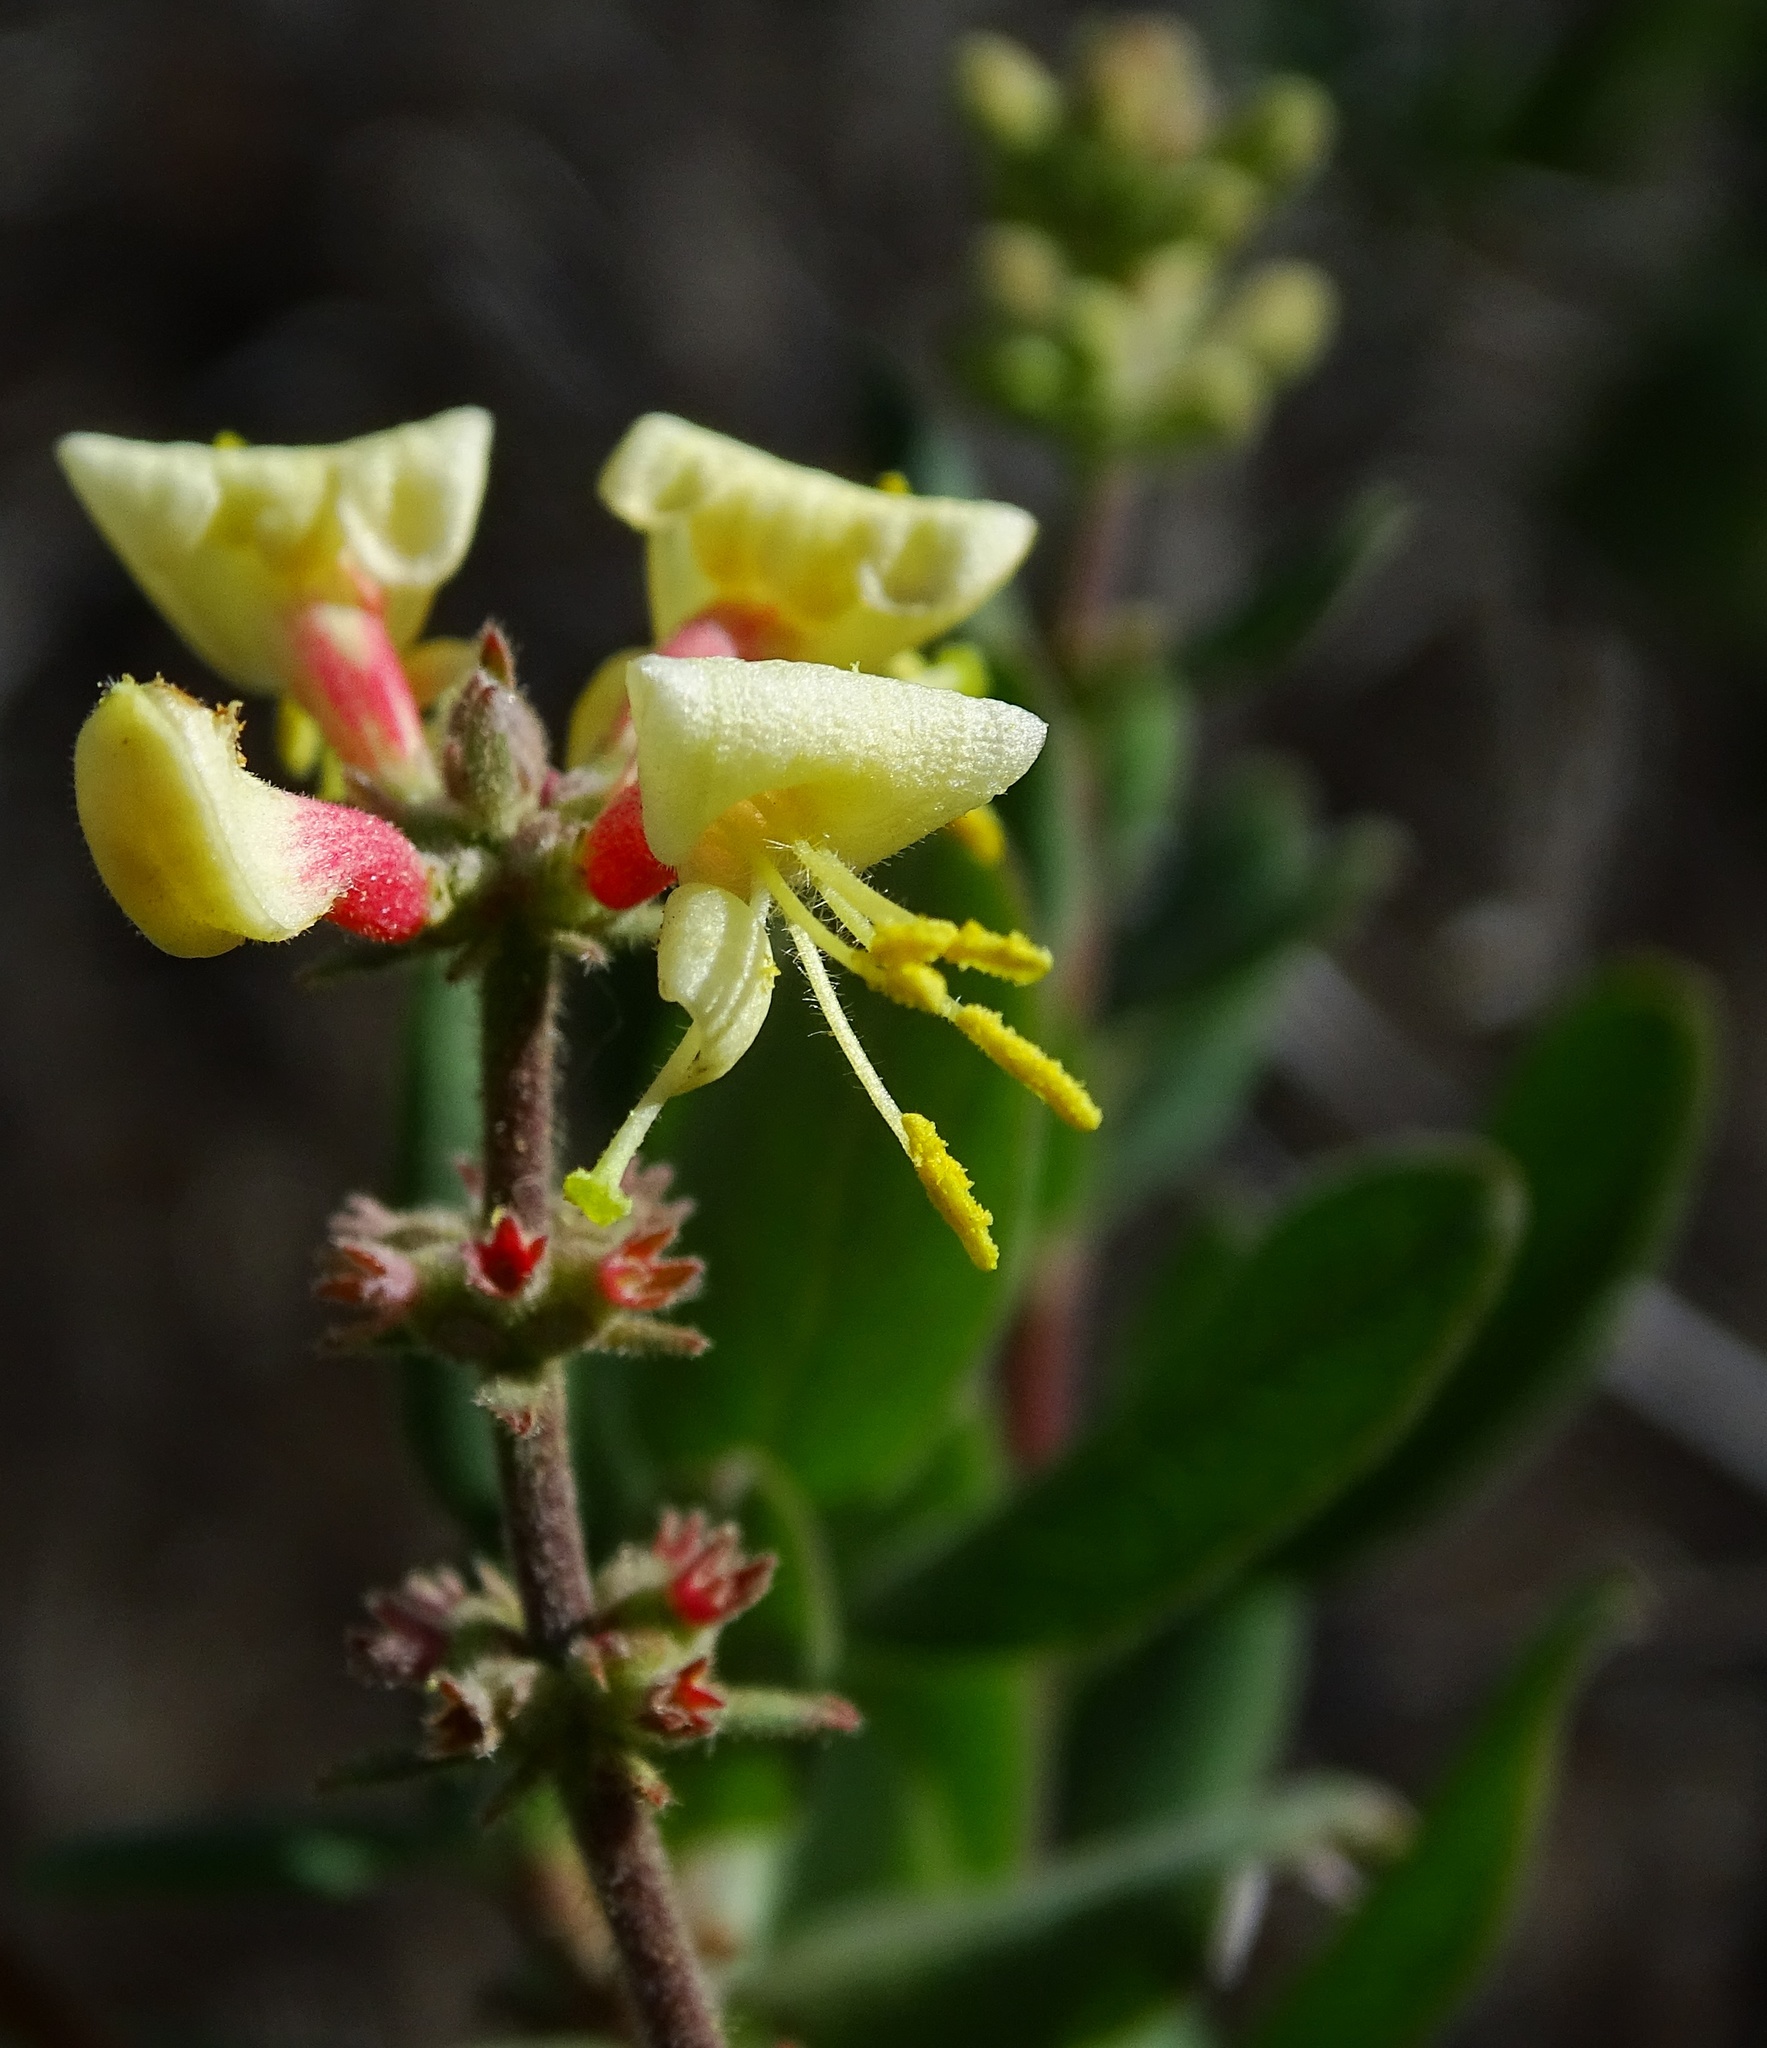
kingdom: Plantae
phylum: Tracheophyta
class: Magnoliopsida
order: Dipsacales
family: Caprifoliaceae
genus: Lonicera
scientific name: Lonicera subspicata
